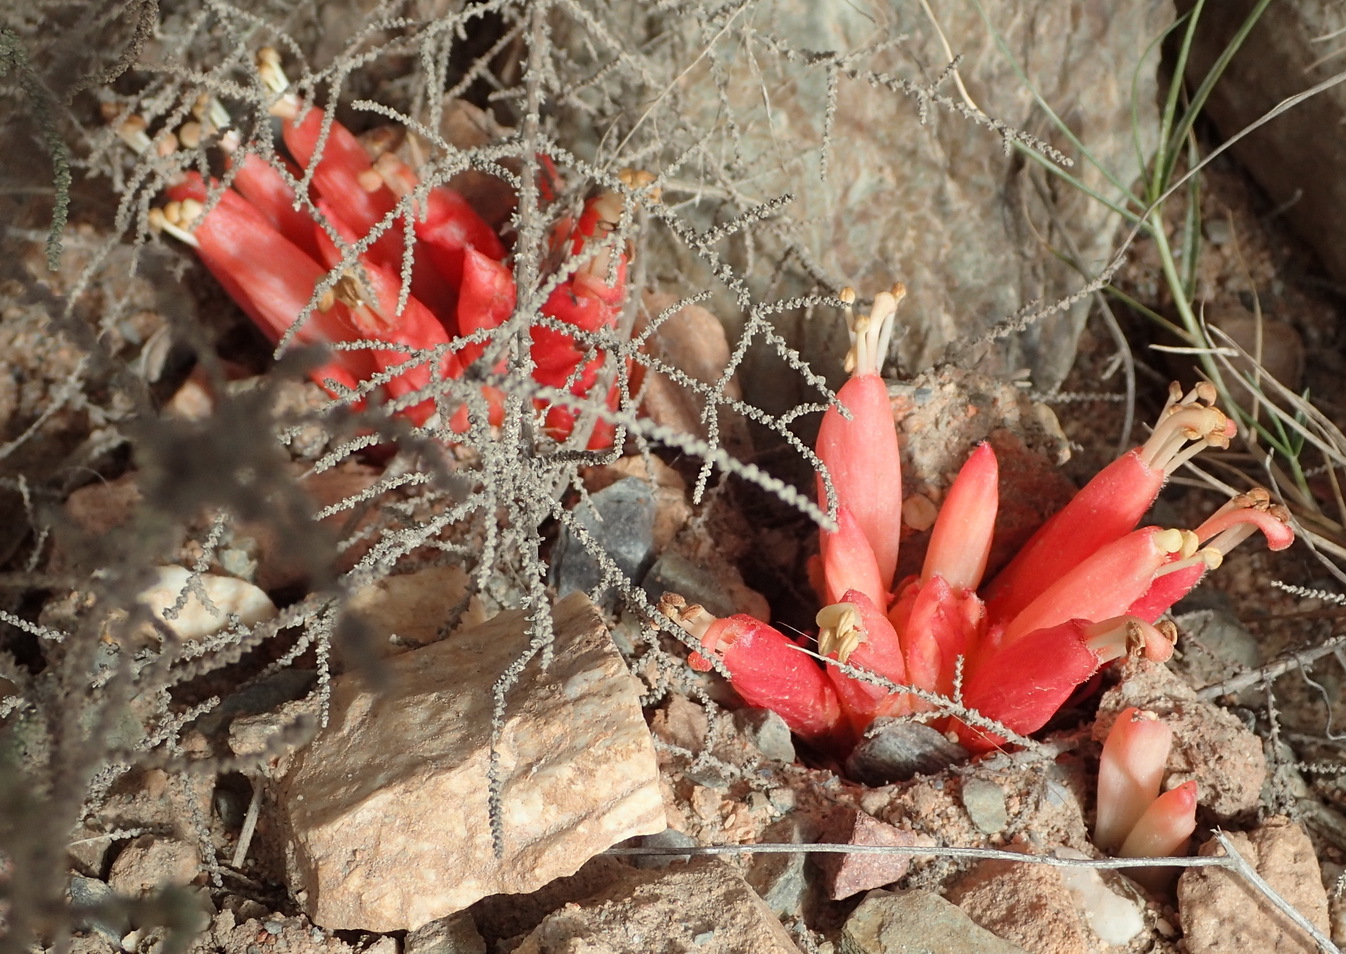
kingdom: Plantae
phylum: Tracheophyta
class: Magnoliopsida
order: Lamiales
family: Orobanchaceae
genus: Hyobanche
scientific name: Hyobanche glabrata
